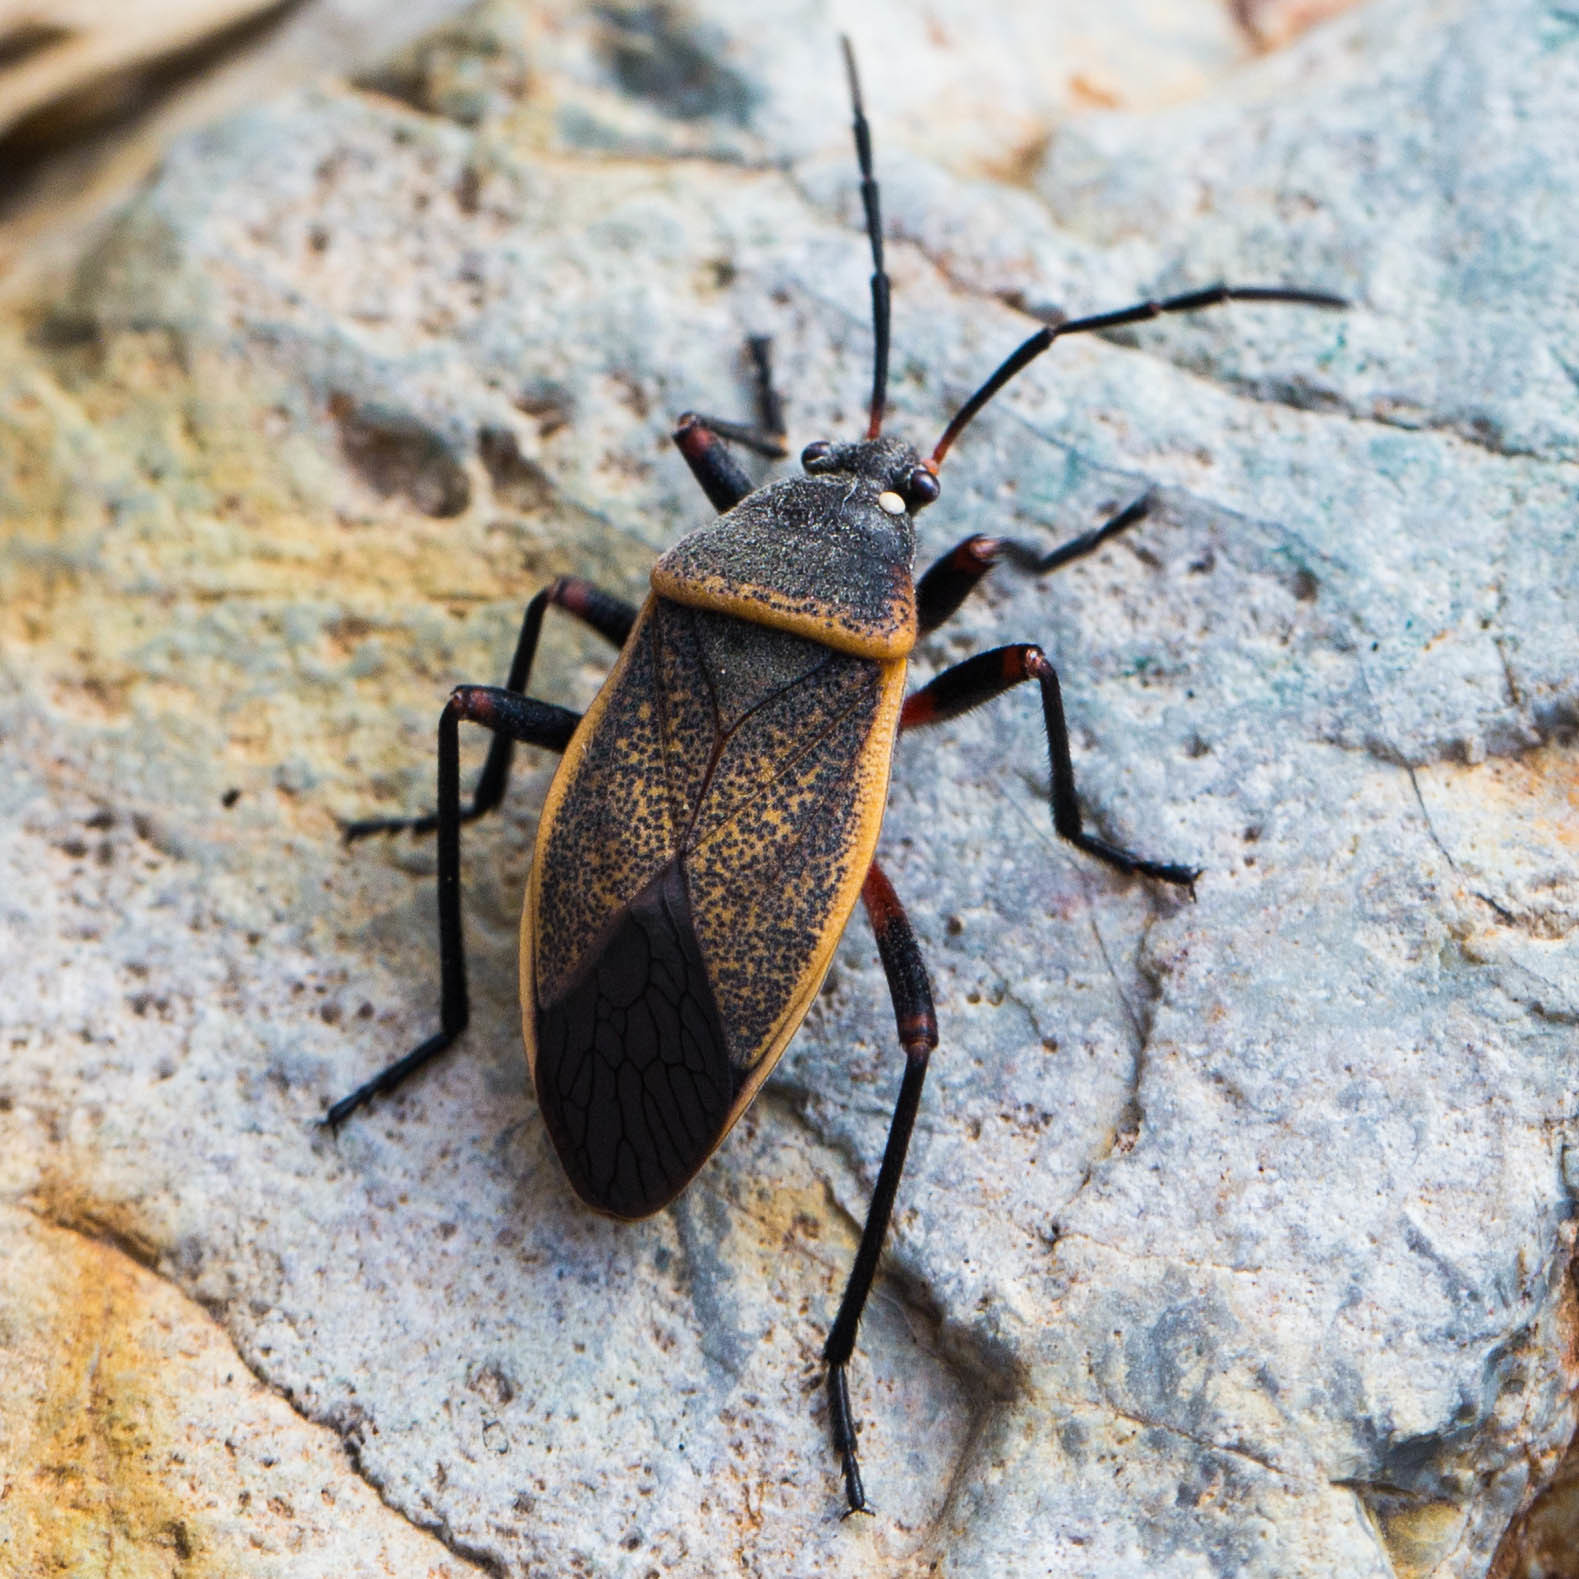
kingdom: Animalia
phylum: Arthropoda
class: Insecta
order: Hemiptera
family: Largidae
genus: Largus
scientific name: Largus californicus
